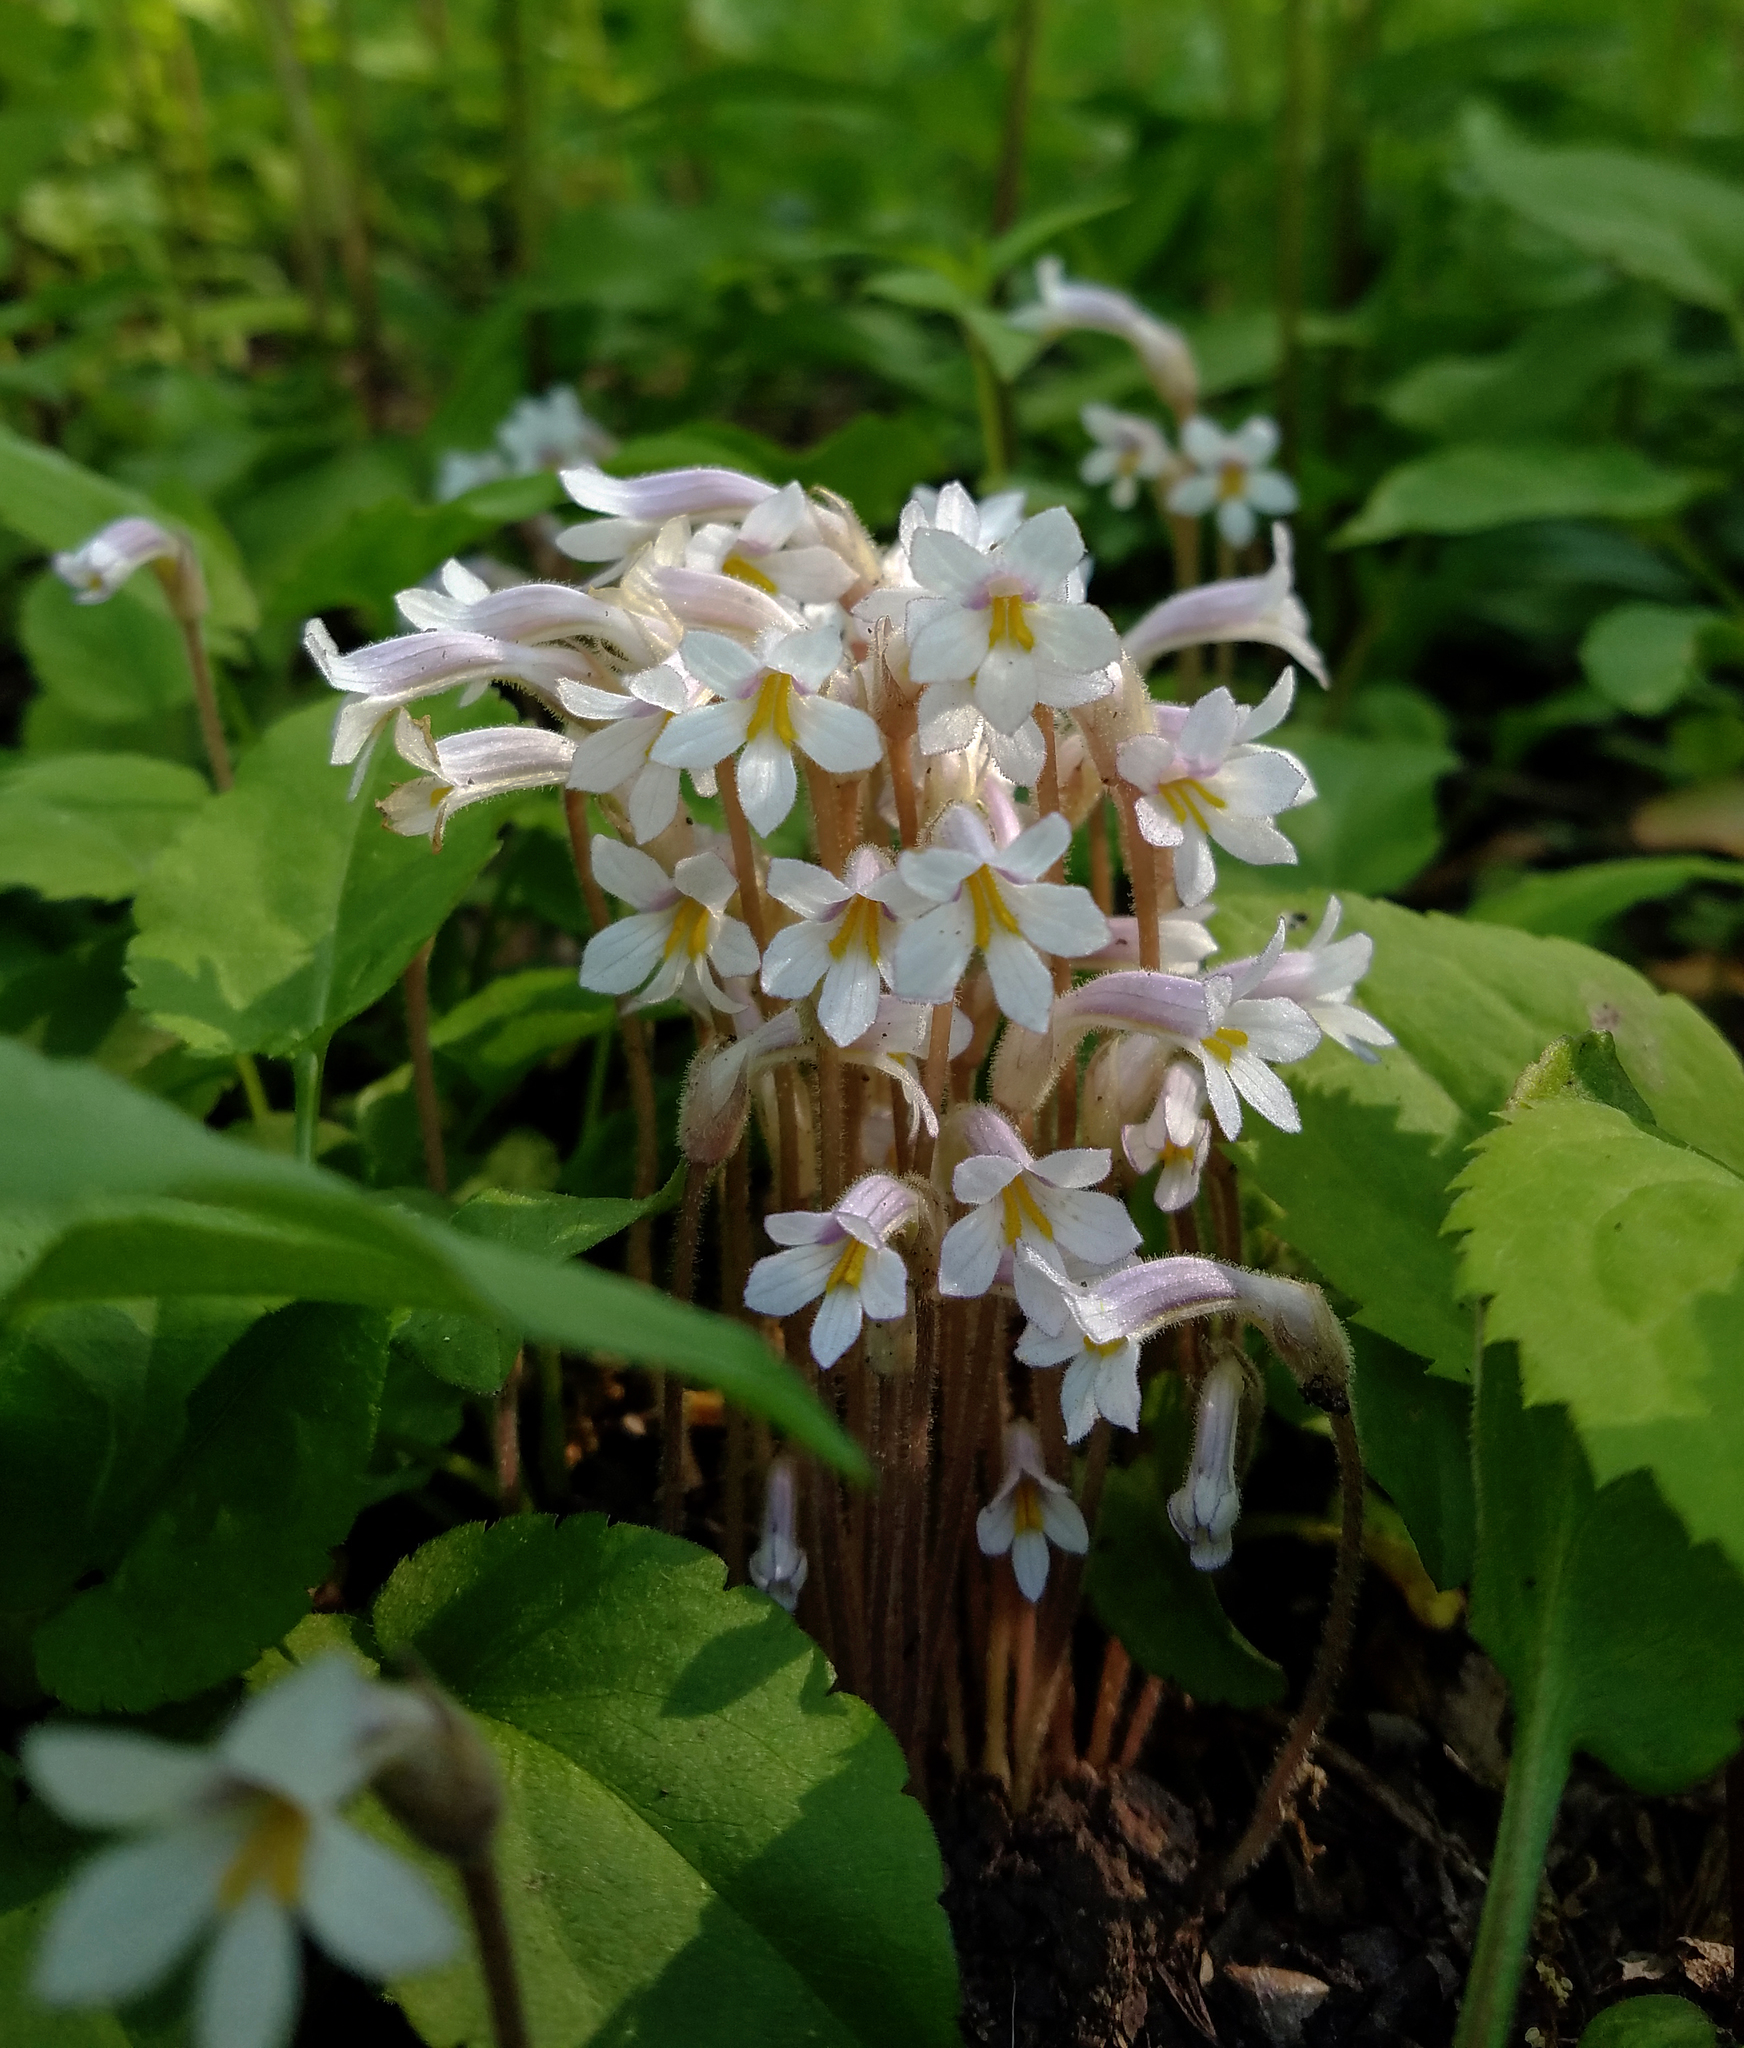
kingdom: Plantae
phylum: Tracheophyta
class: Magnoliopsida
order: Lamiales
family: Orobanchaceae
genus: Aphyllon
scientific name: Aphyllon uniflorum
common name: One-flowered broomrape
